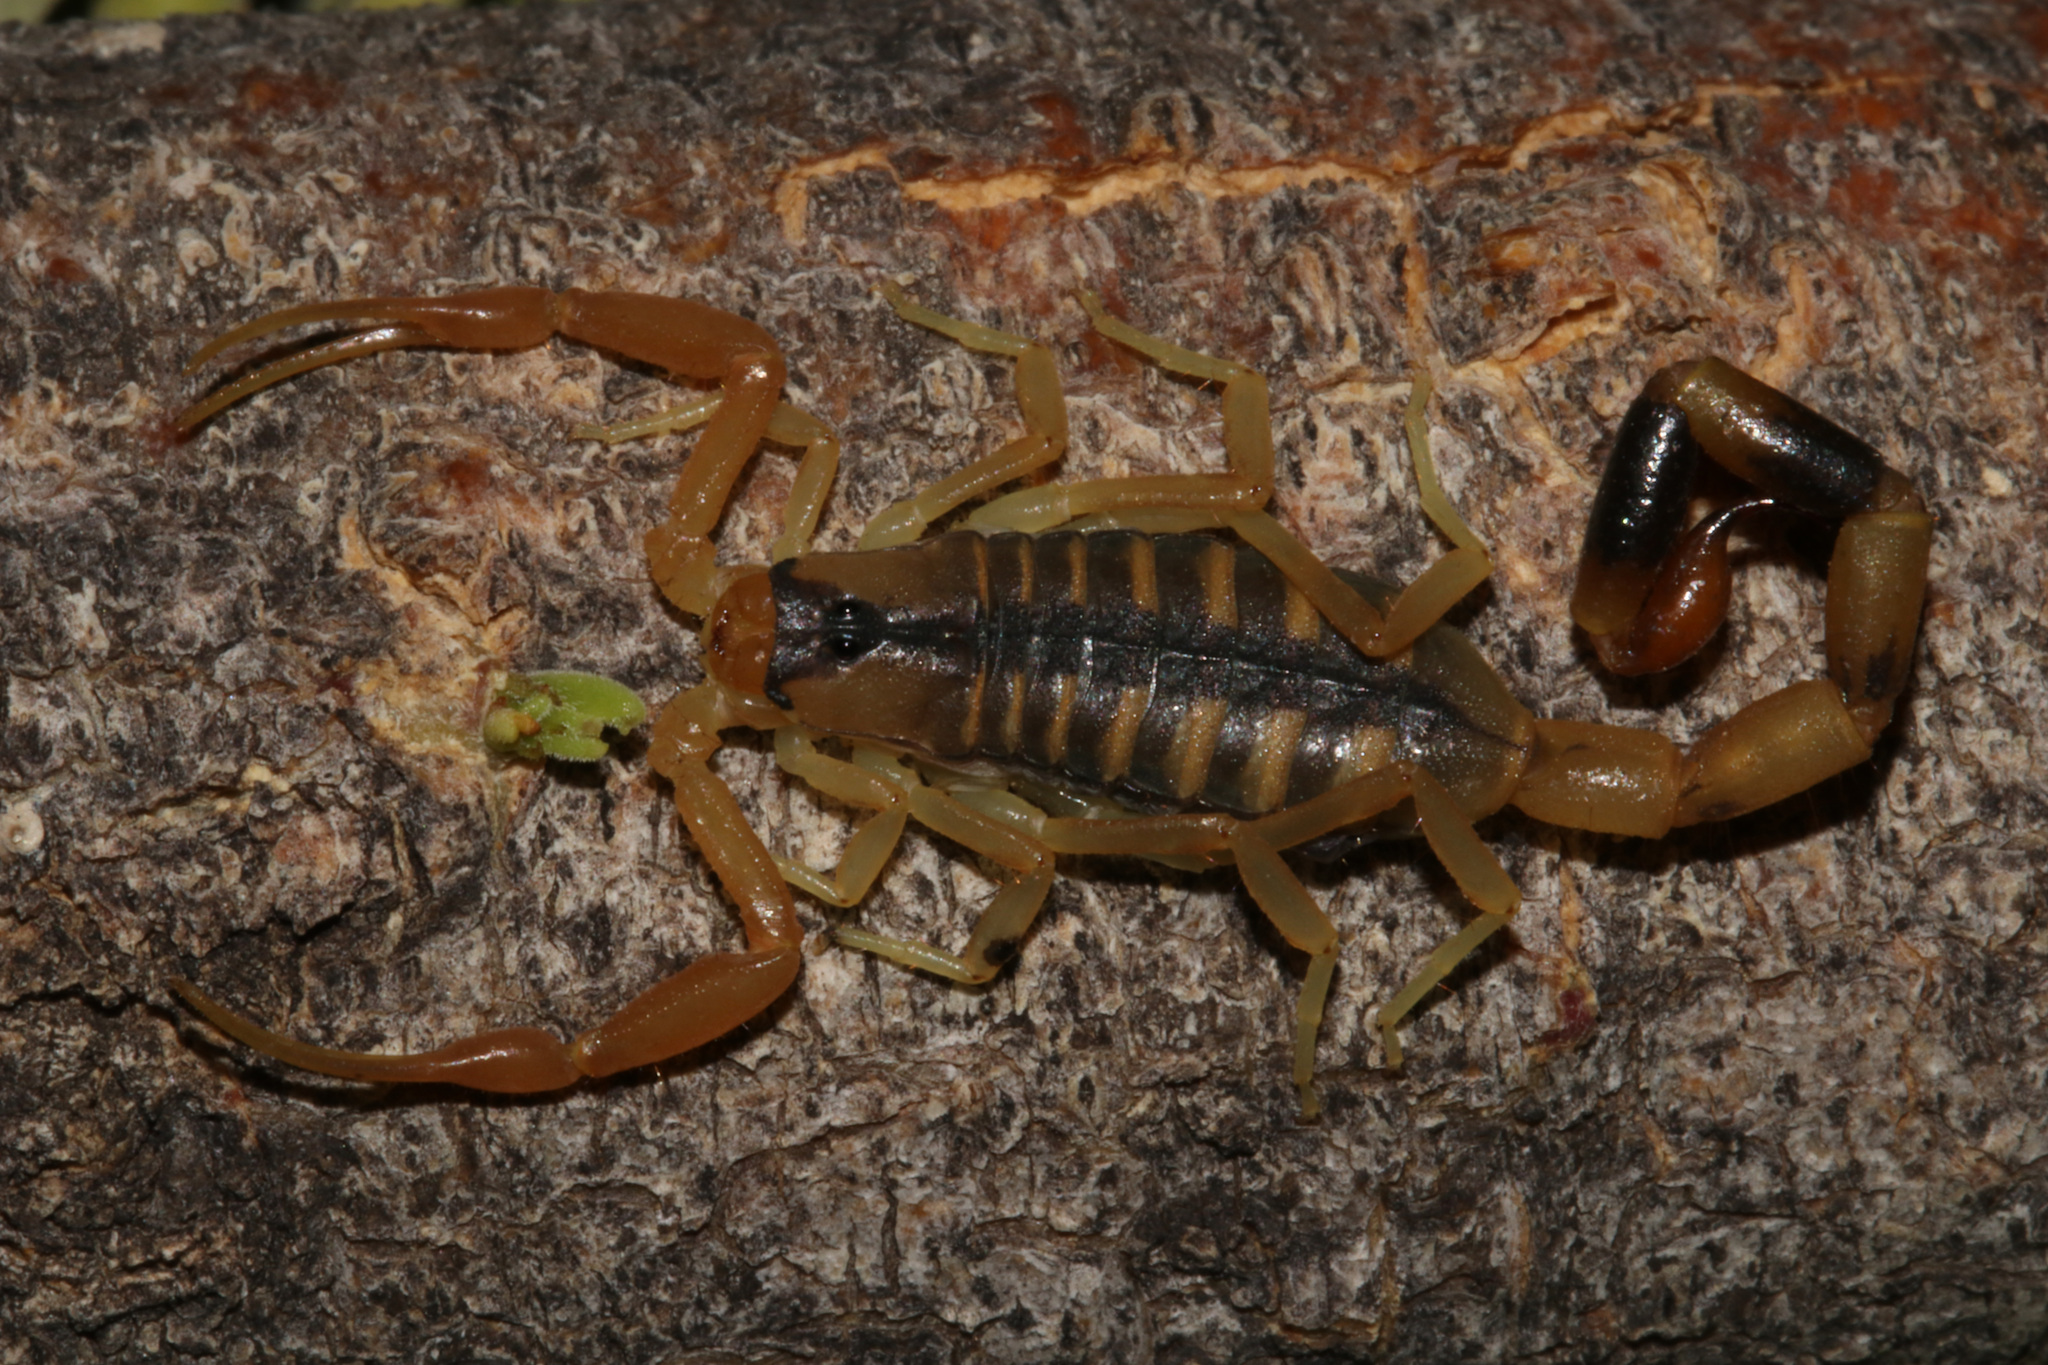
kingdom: Animalia
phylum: Arthropoda
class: Arachnida
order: Scorpiones
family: Buthidae
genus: Uroplectes
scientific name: Uroplectes otjimbinguensis
